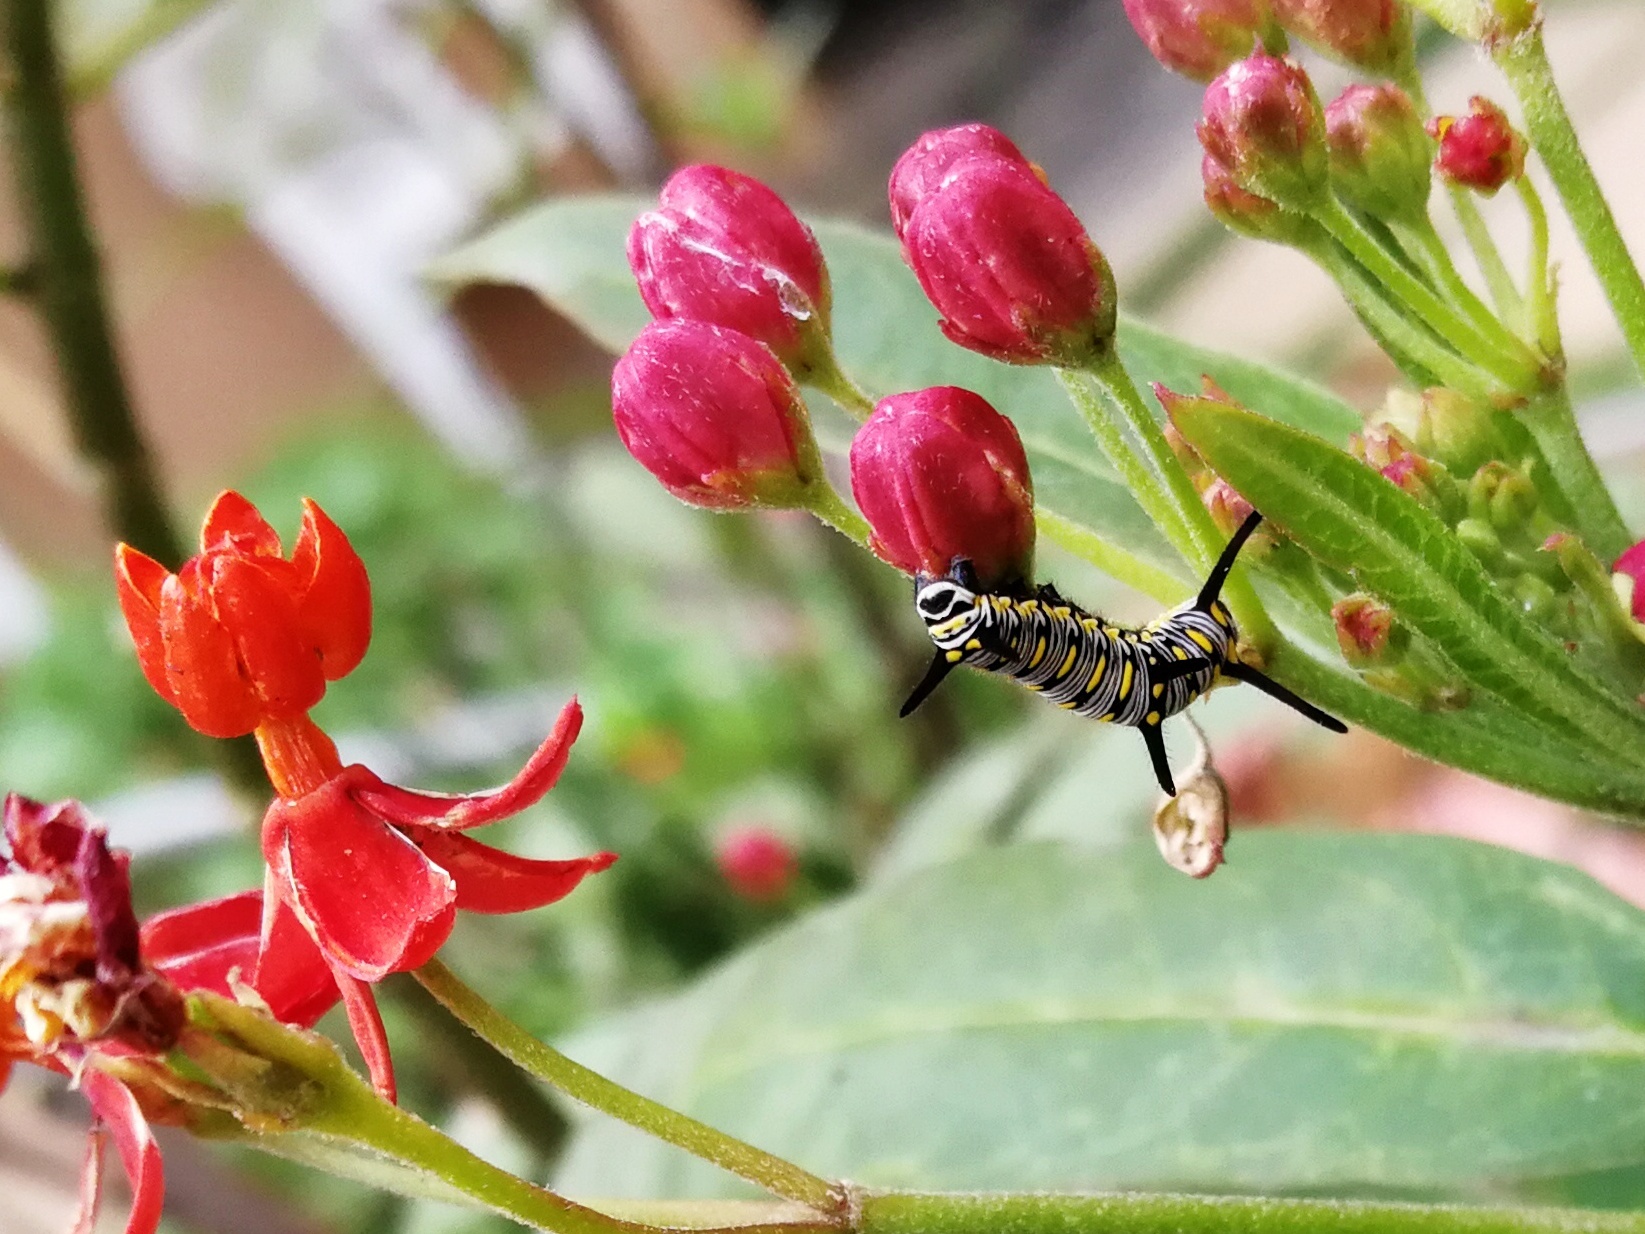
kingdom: Animalia
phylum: Arthropoda
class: Insecta
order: Lepidoptera
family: Nymphalidae
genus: Danaus
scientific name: Danaus chrysippus
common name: Plain tiger
